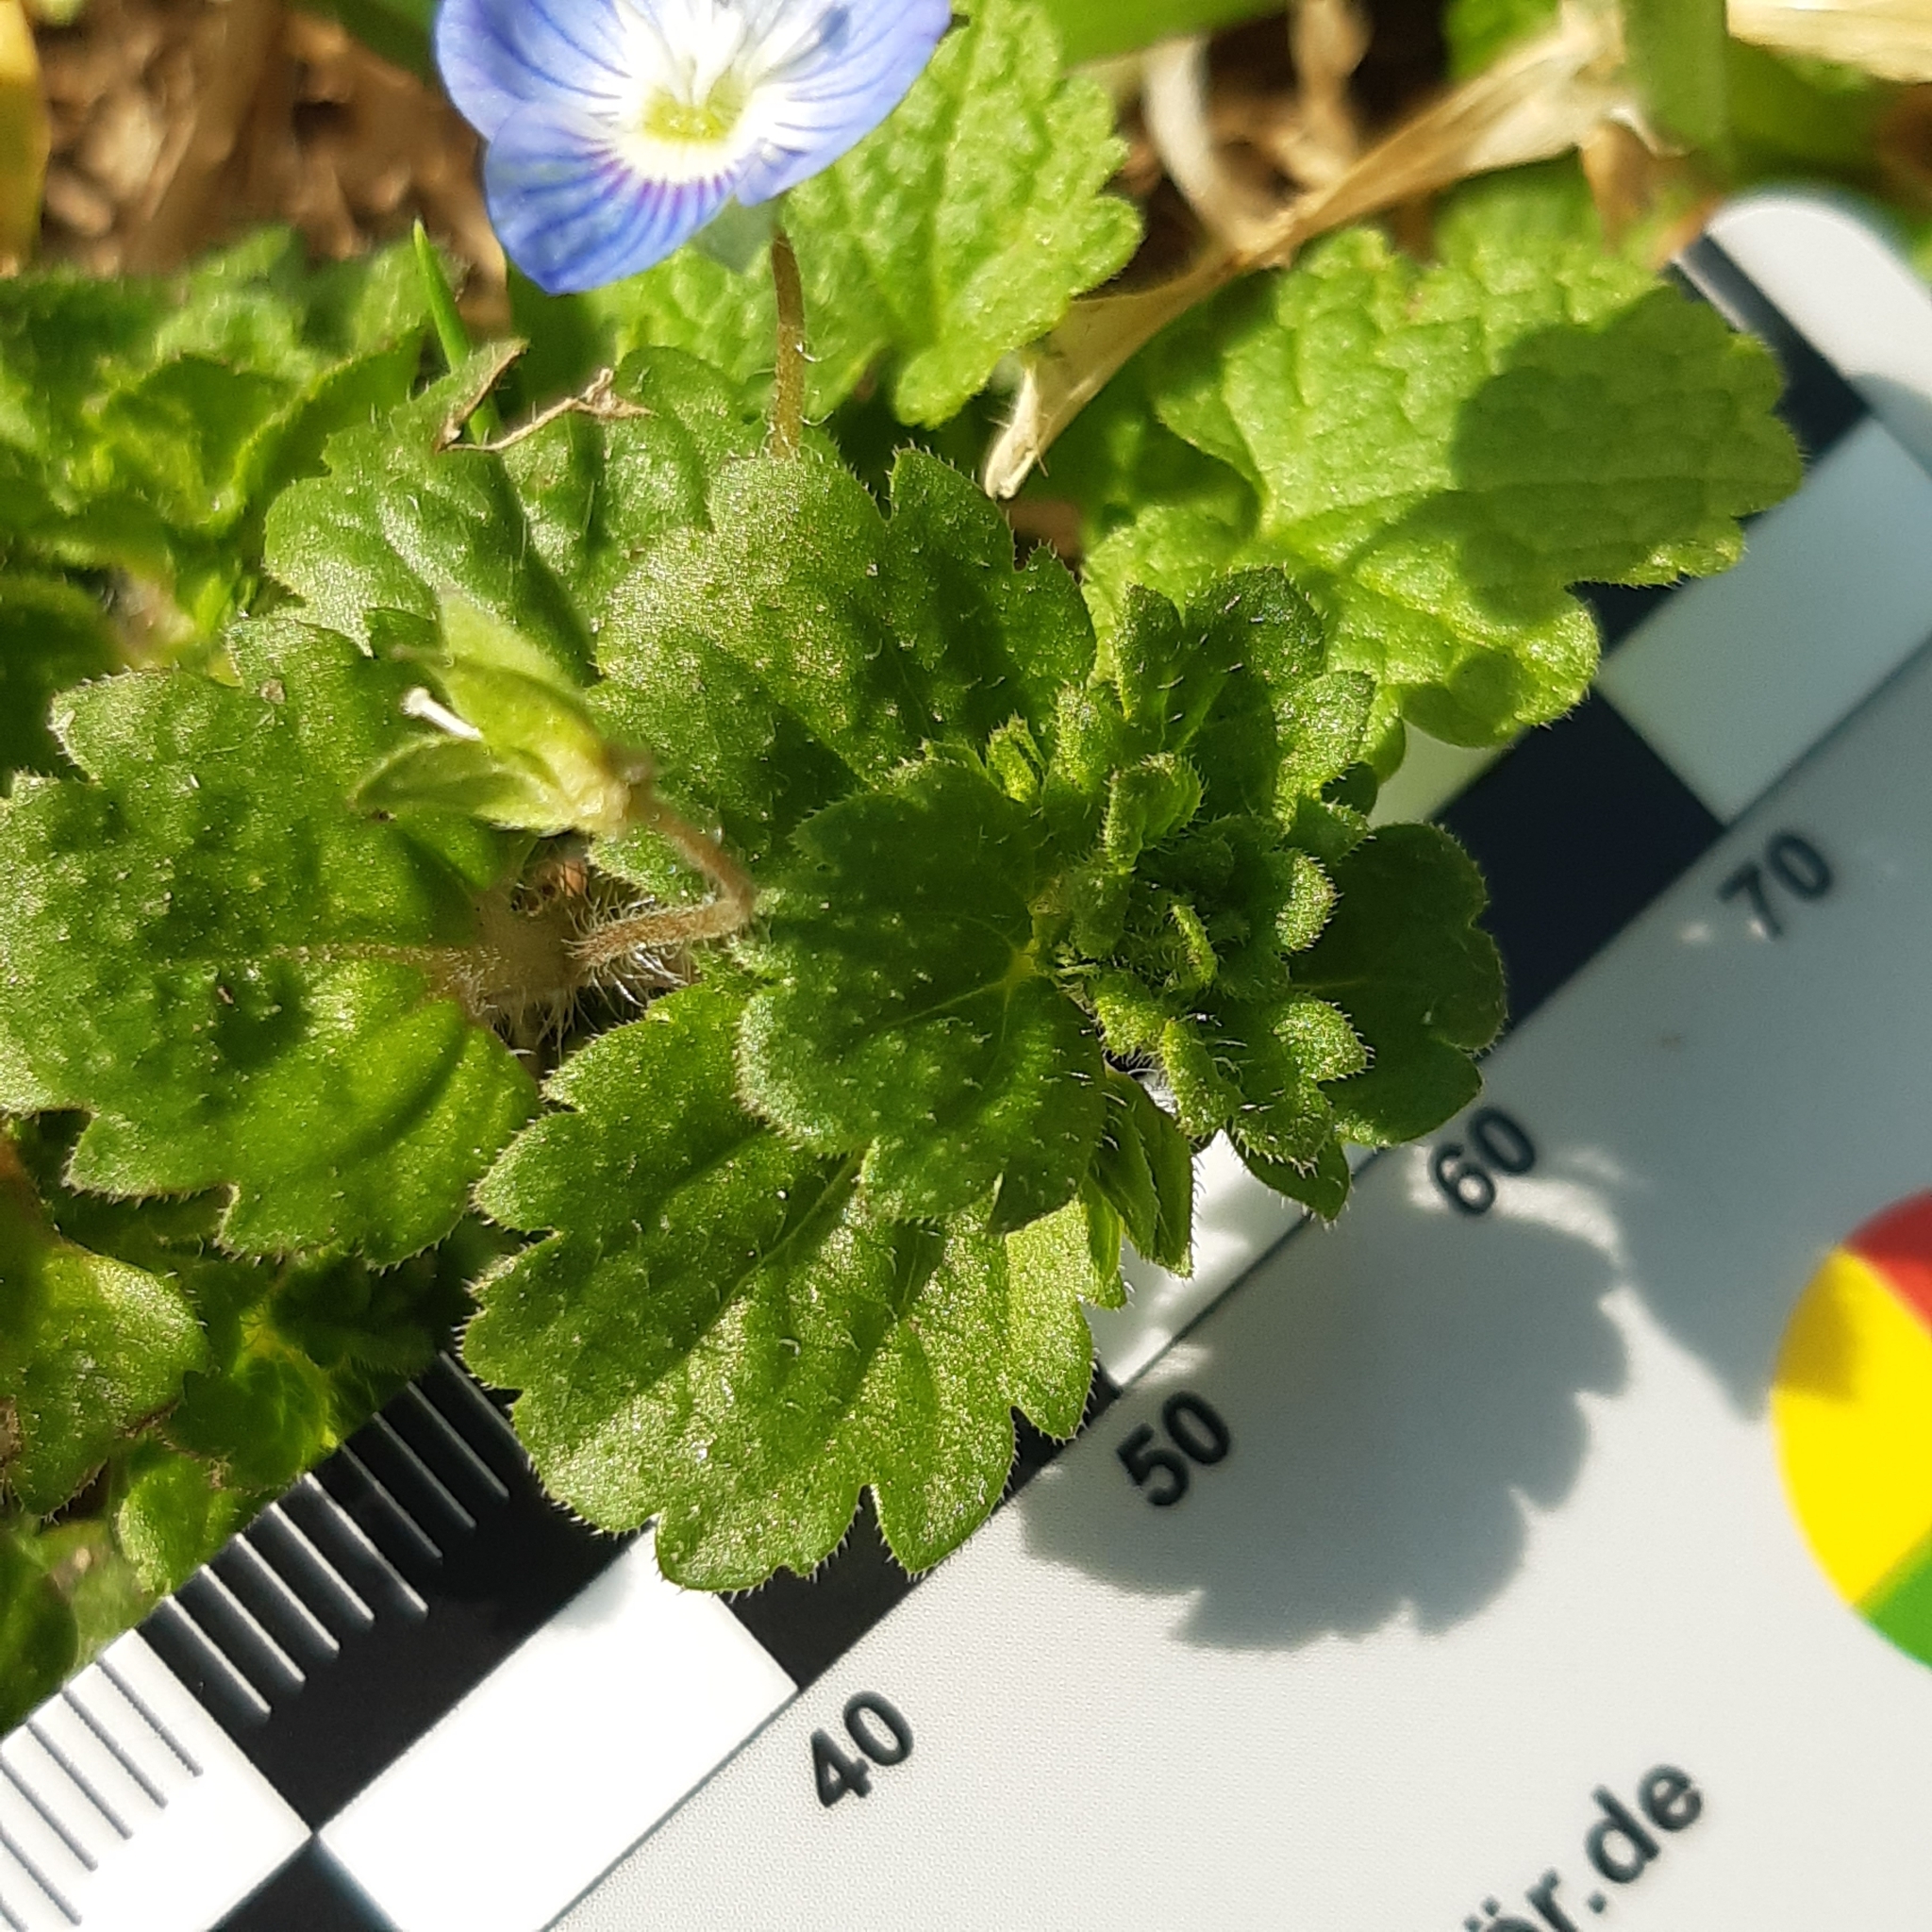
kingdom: Plantae
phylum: Tracheophyta
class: Magnoliopsida
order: Lamiales
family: Plantaginaceae
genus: Veronica
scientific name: Veronica persica
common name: Common field-speedwell
